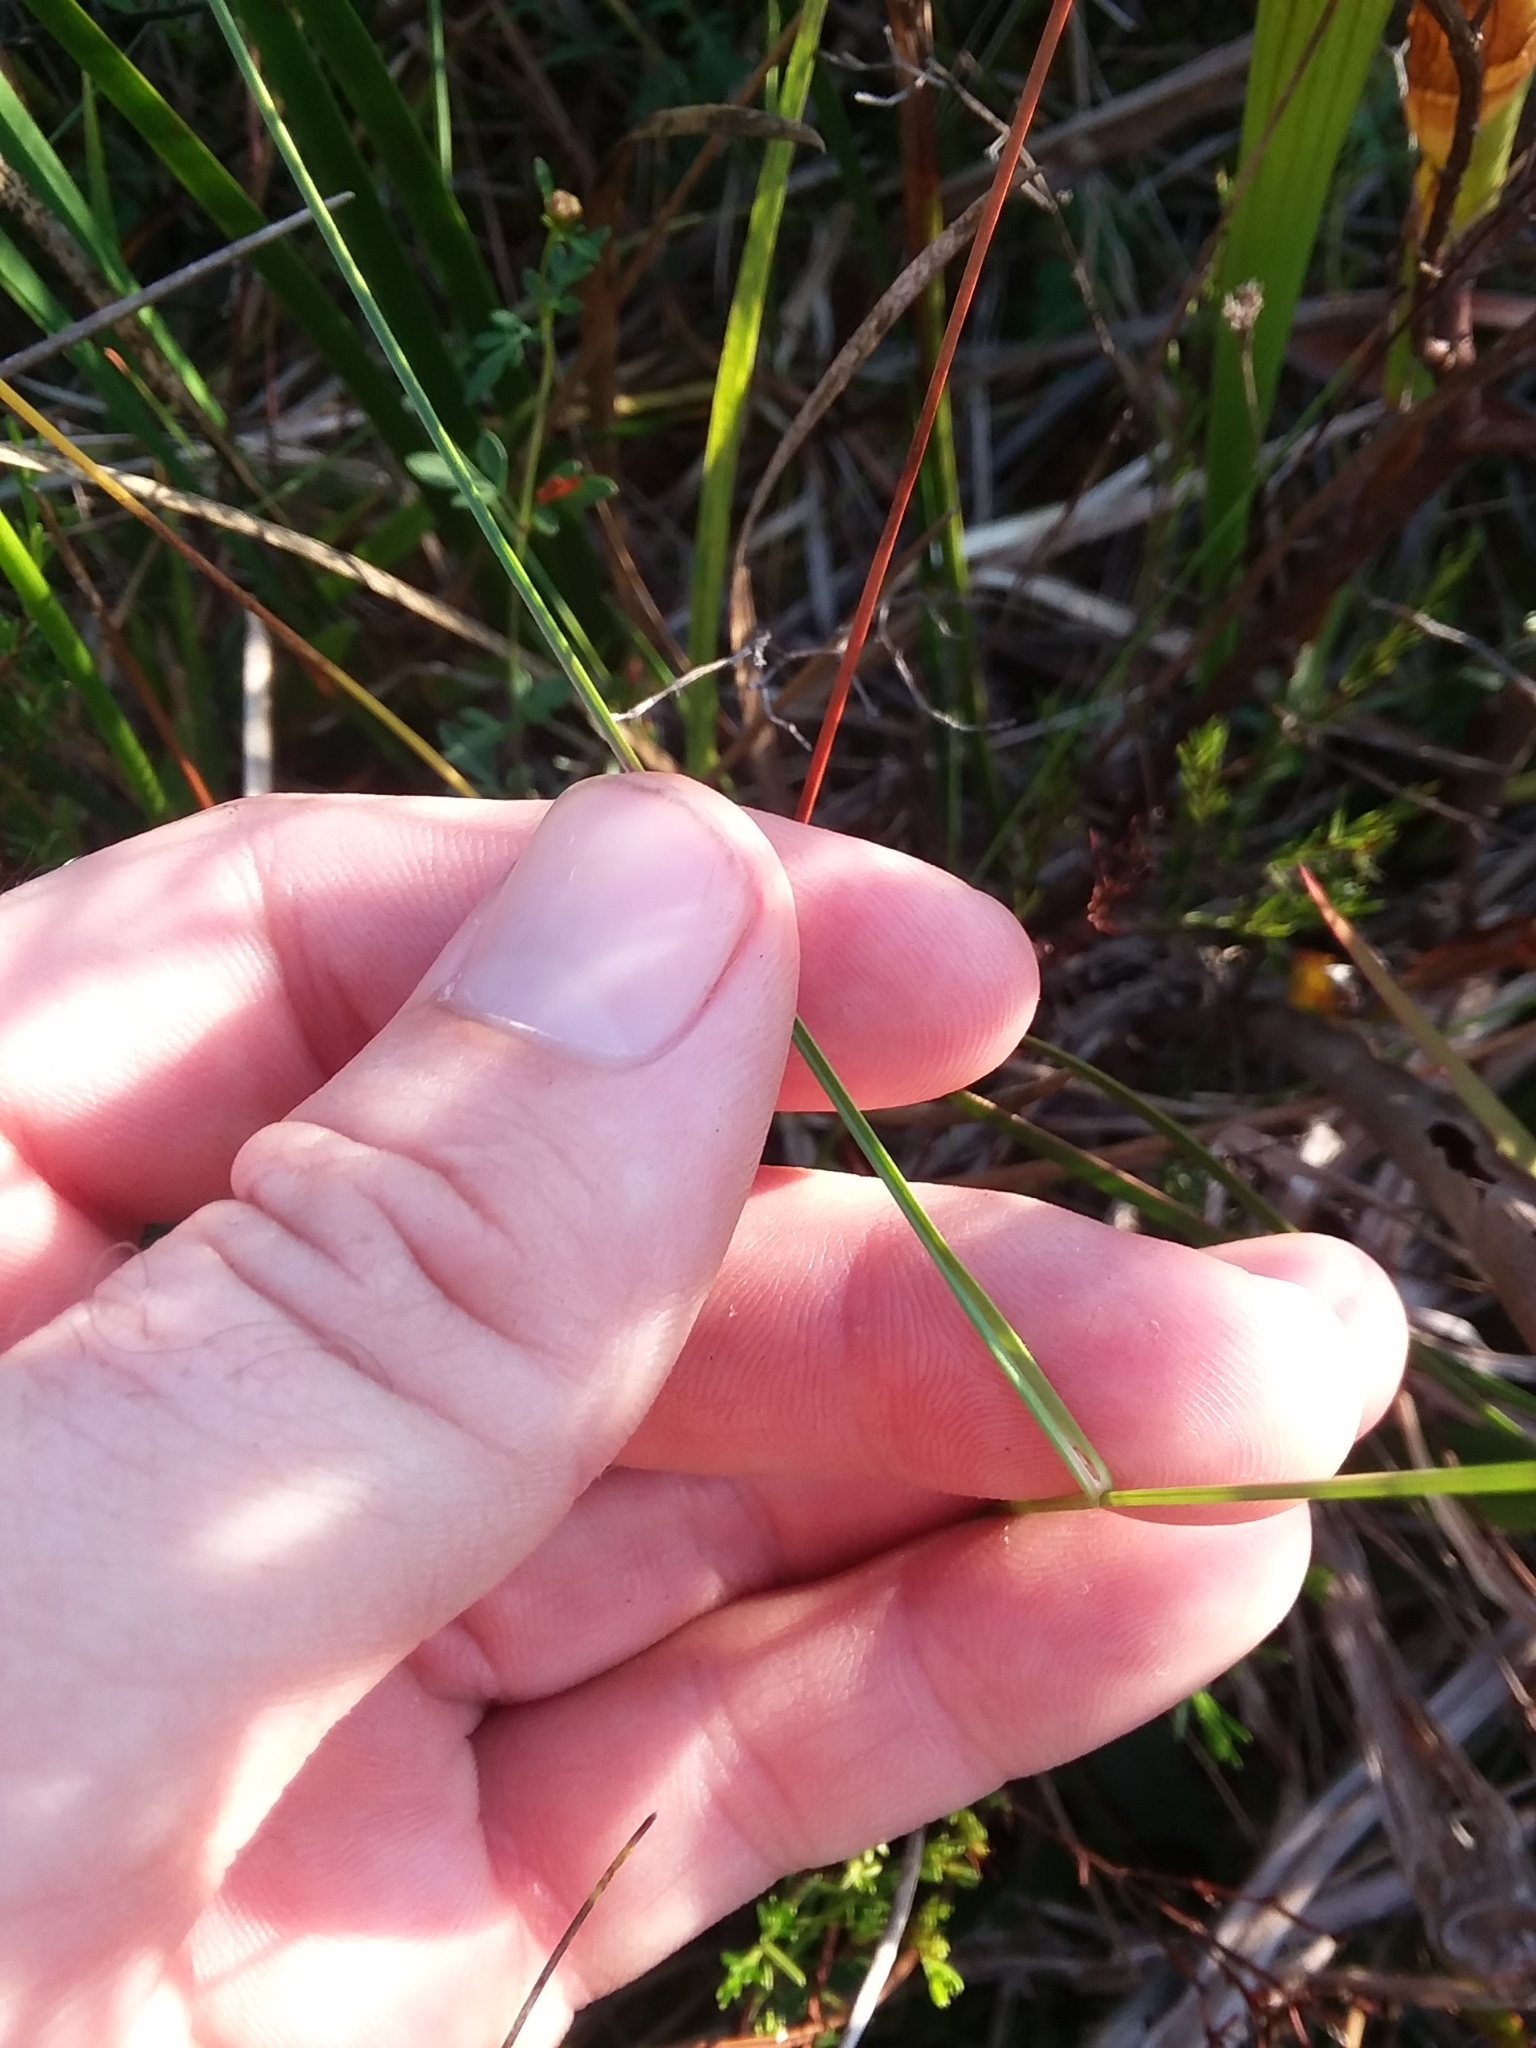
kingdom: Plantae
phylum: Tracheophyta
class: Liliopsida
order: Poales
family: Cyperaceae
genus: Rhynchospora
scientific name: Rhynchospora macra
